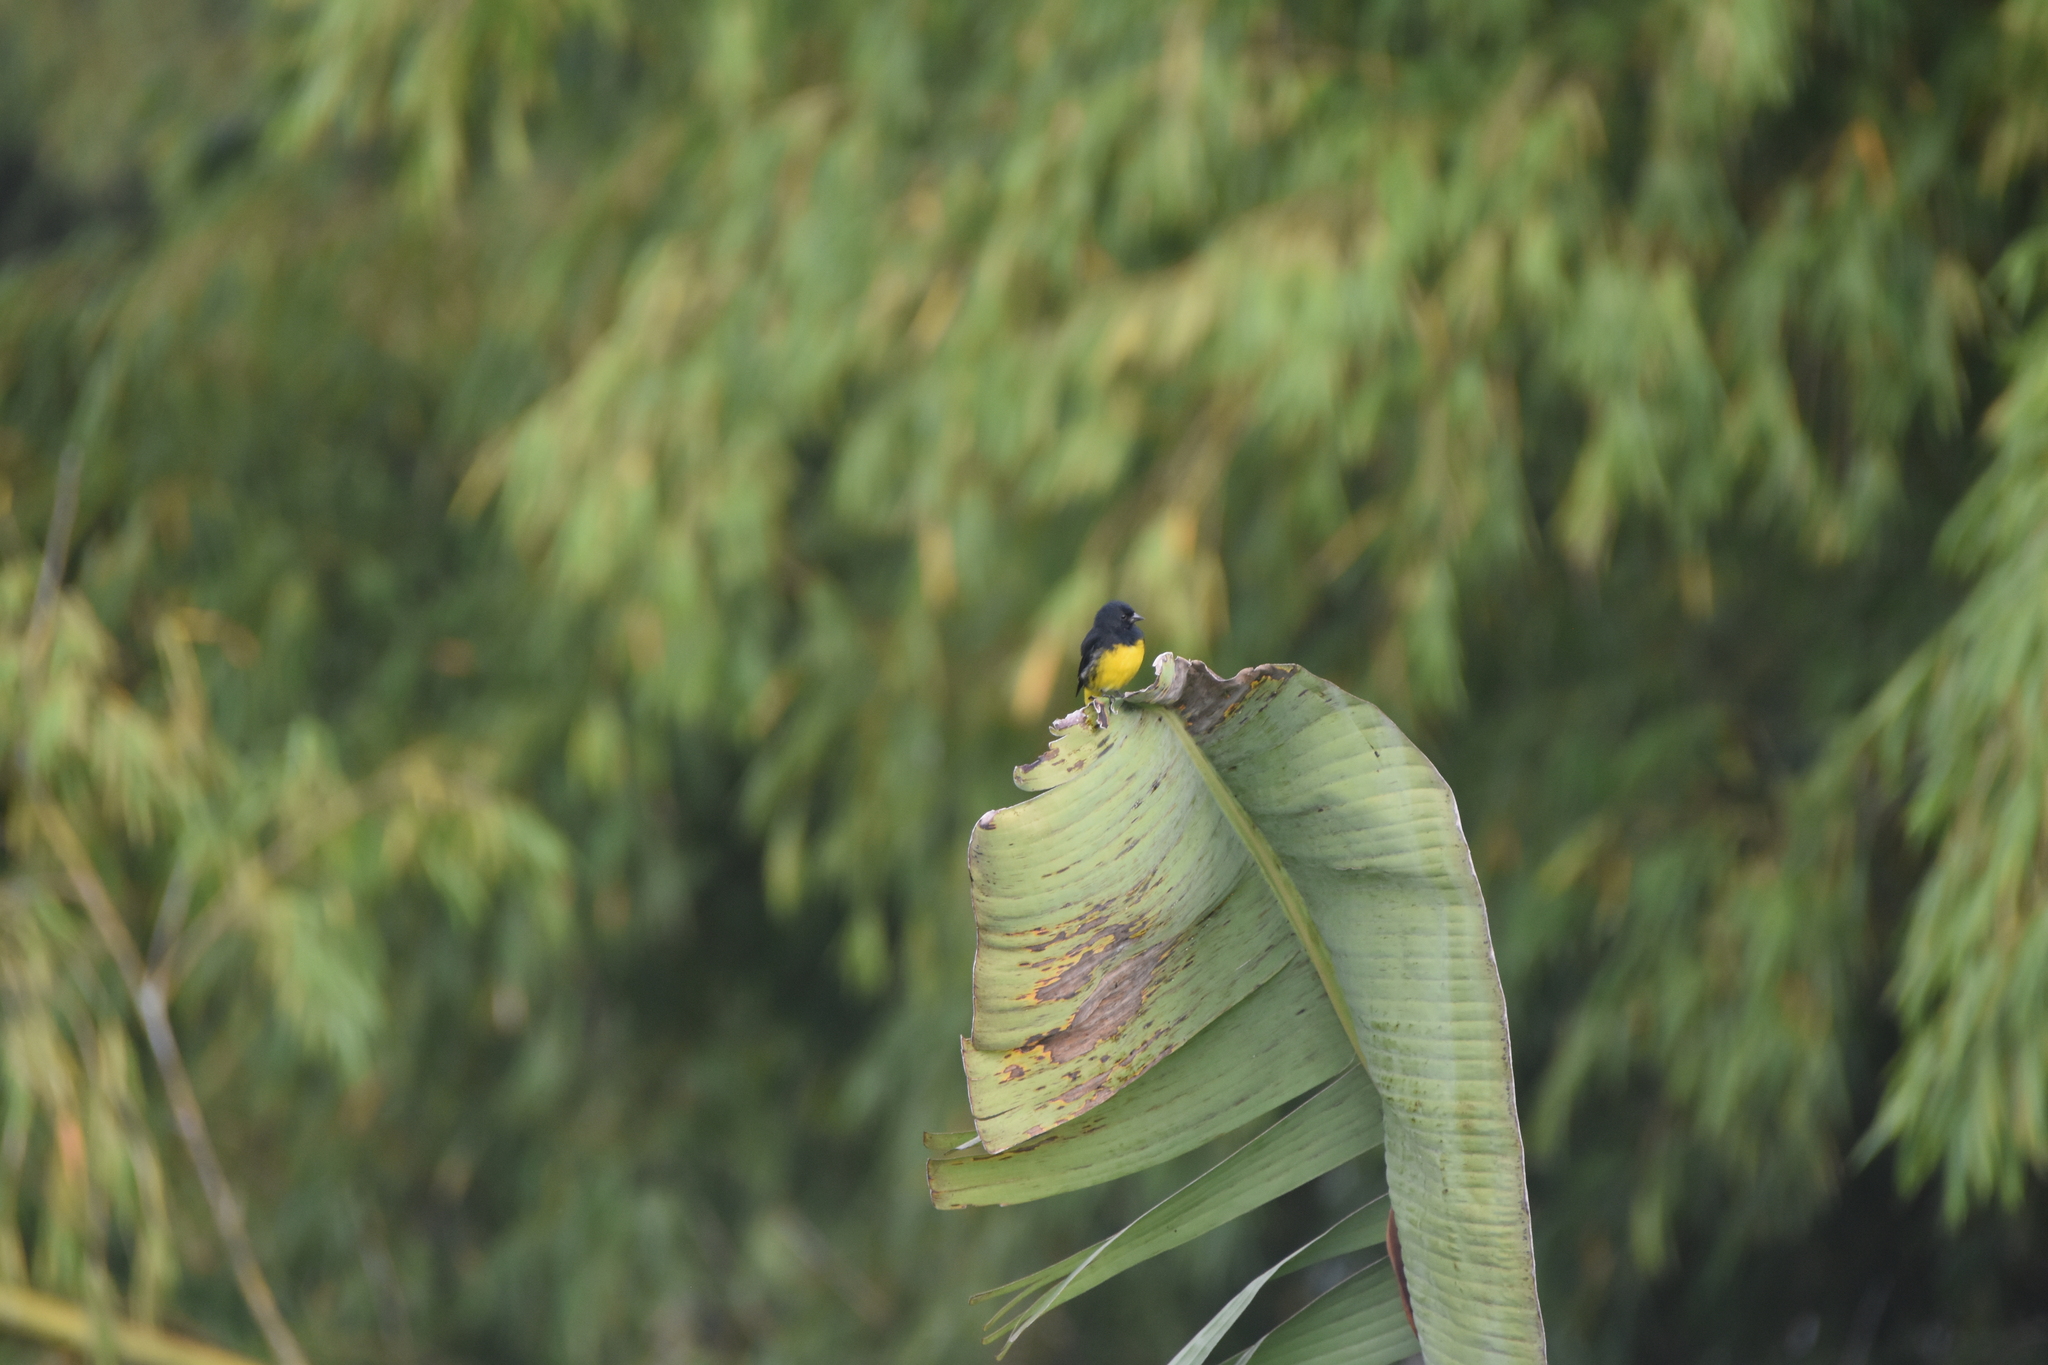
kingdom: Animalia
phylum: Chordata
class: Aves
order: Passeriformes
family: Fringillidae
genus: Spinus
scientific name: Spinus xanthogastrus
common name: Yellow-bellied siskin
